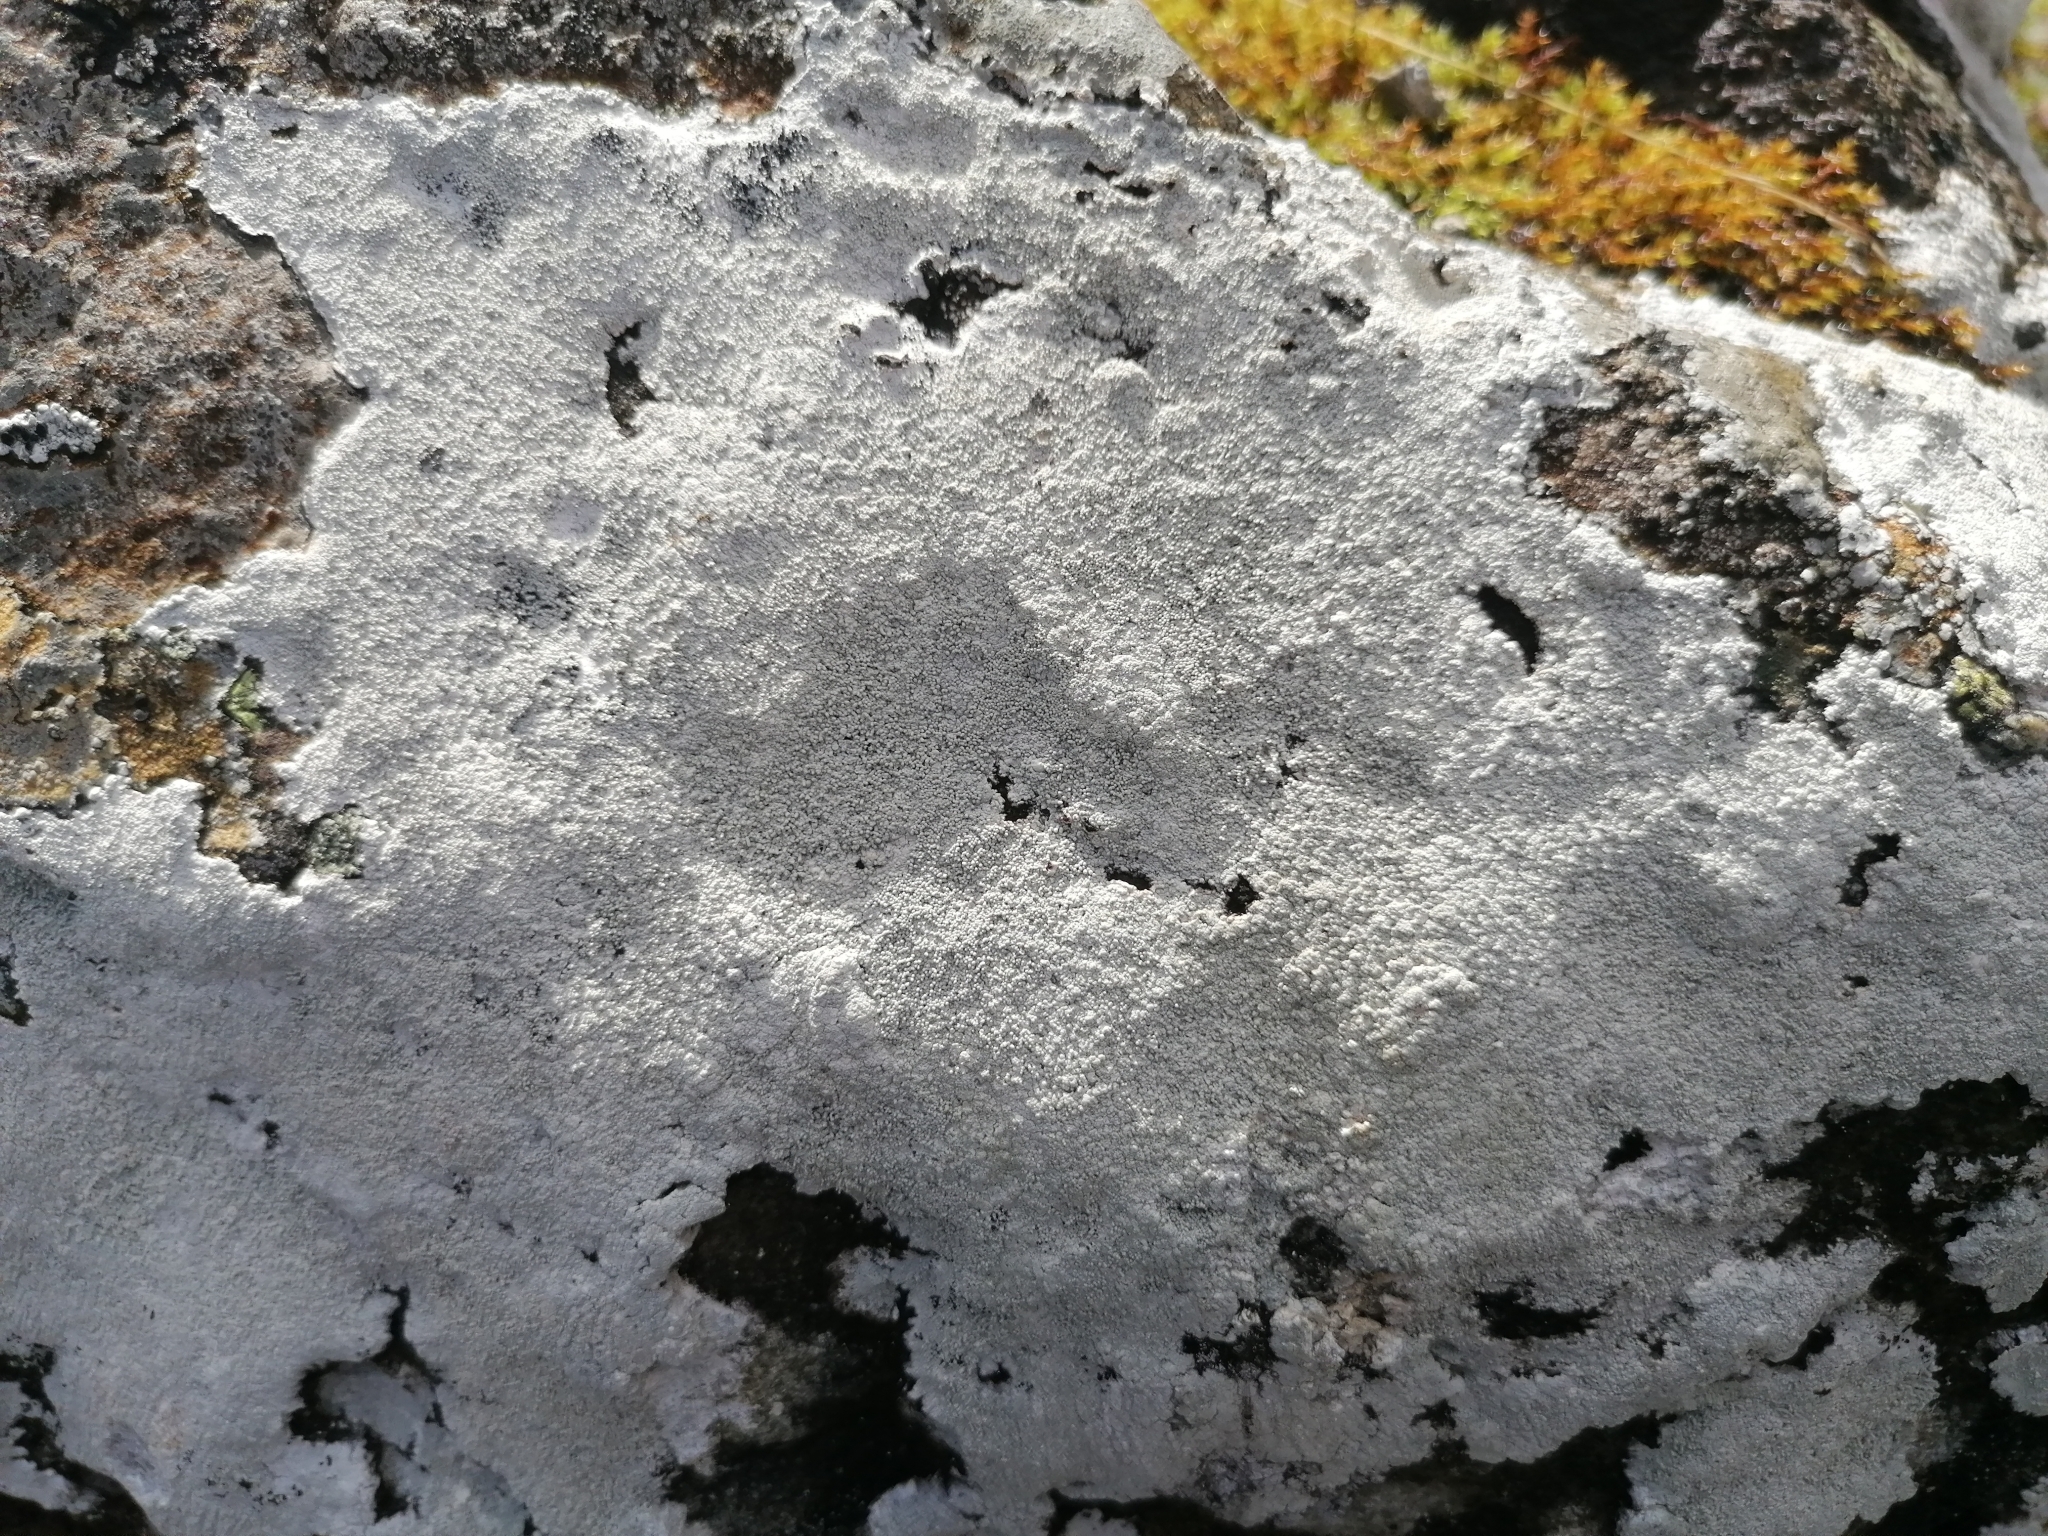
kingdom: Fungi
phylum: Ascomycota
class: Lecanoromycetes
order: Pertusariales
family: Pertusariaceae
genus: Lepra
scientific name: Lepra corallina
